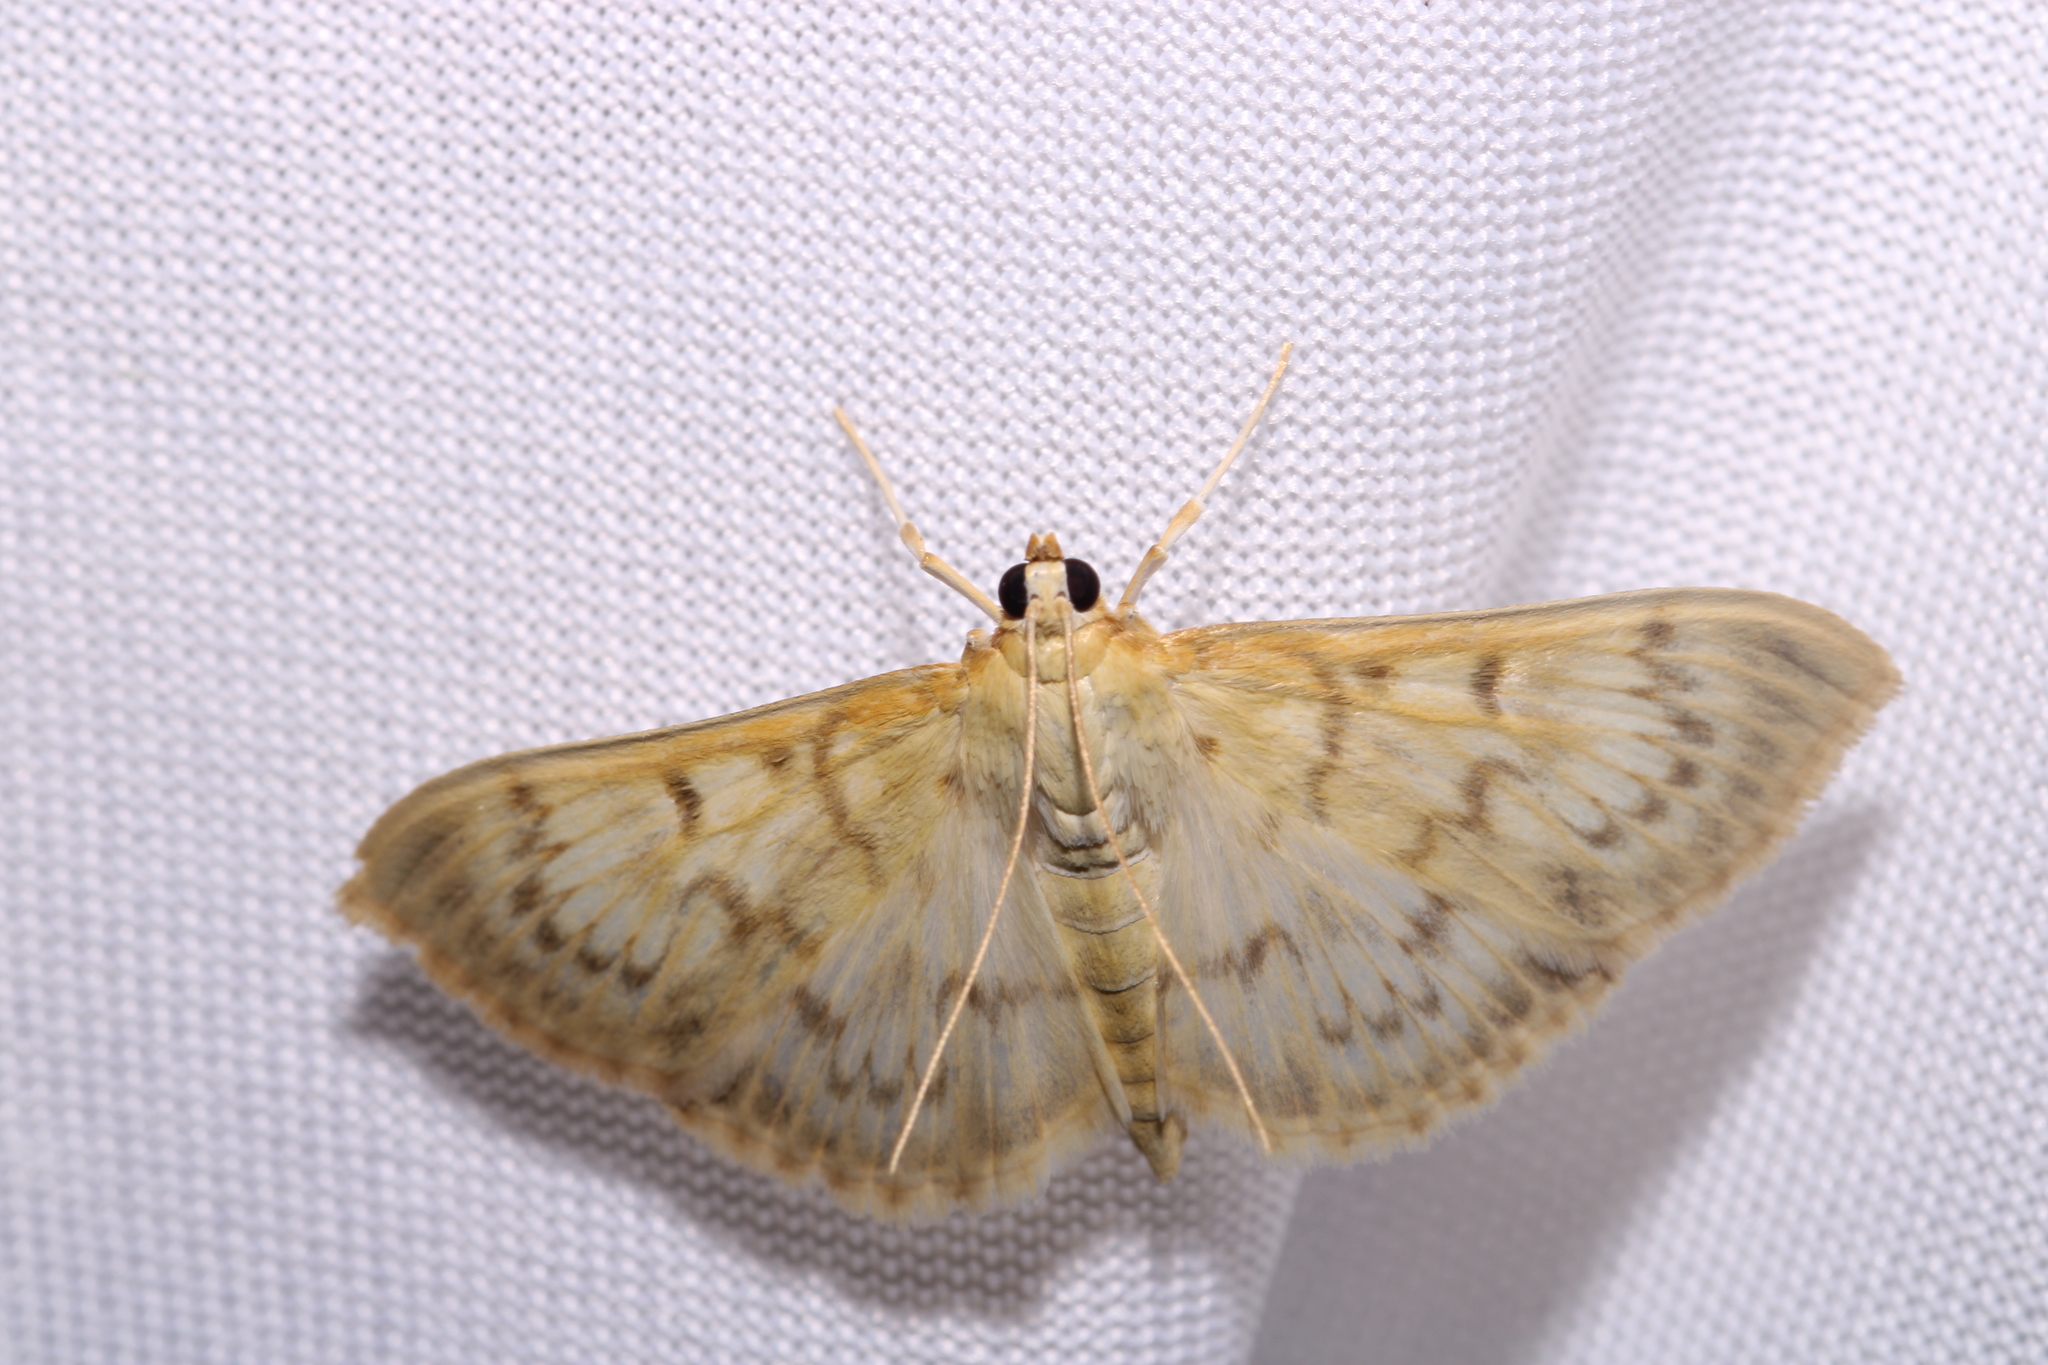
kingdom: Animalia
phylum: Arthropoda
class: Insecta
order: Lepidoptera
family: Crambidae
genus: Patania
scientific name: Patania ruralis
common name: Mother of pearl
